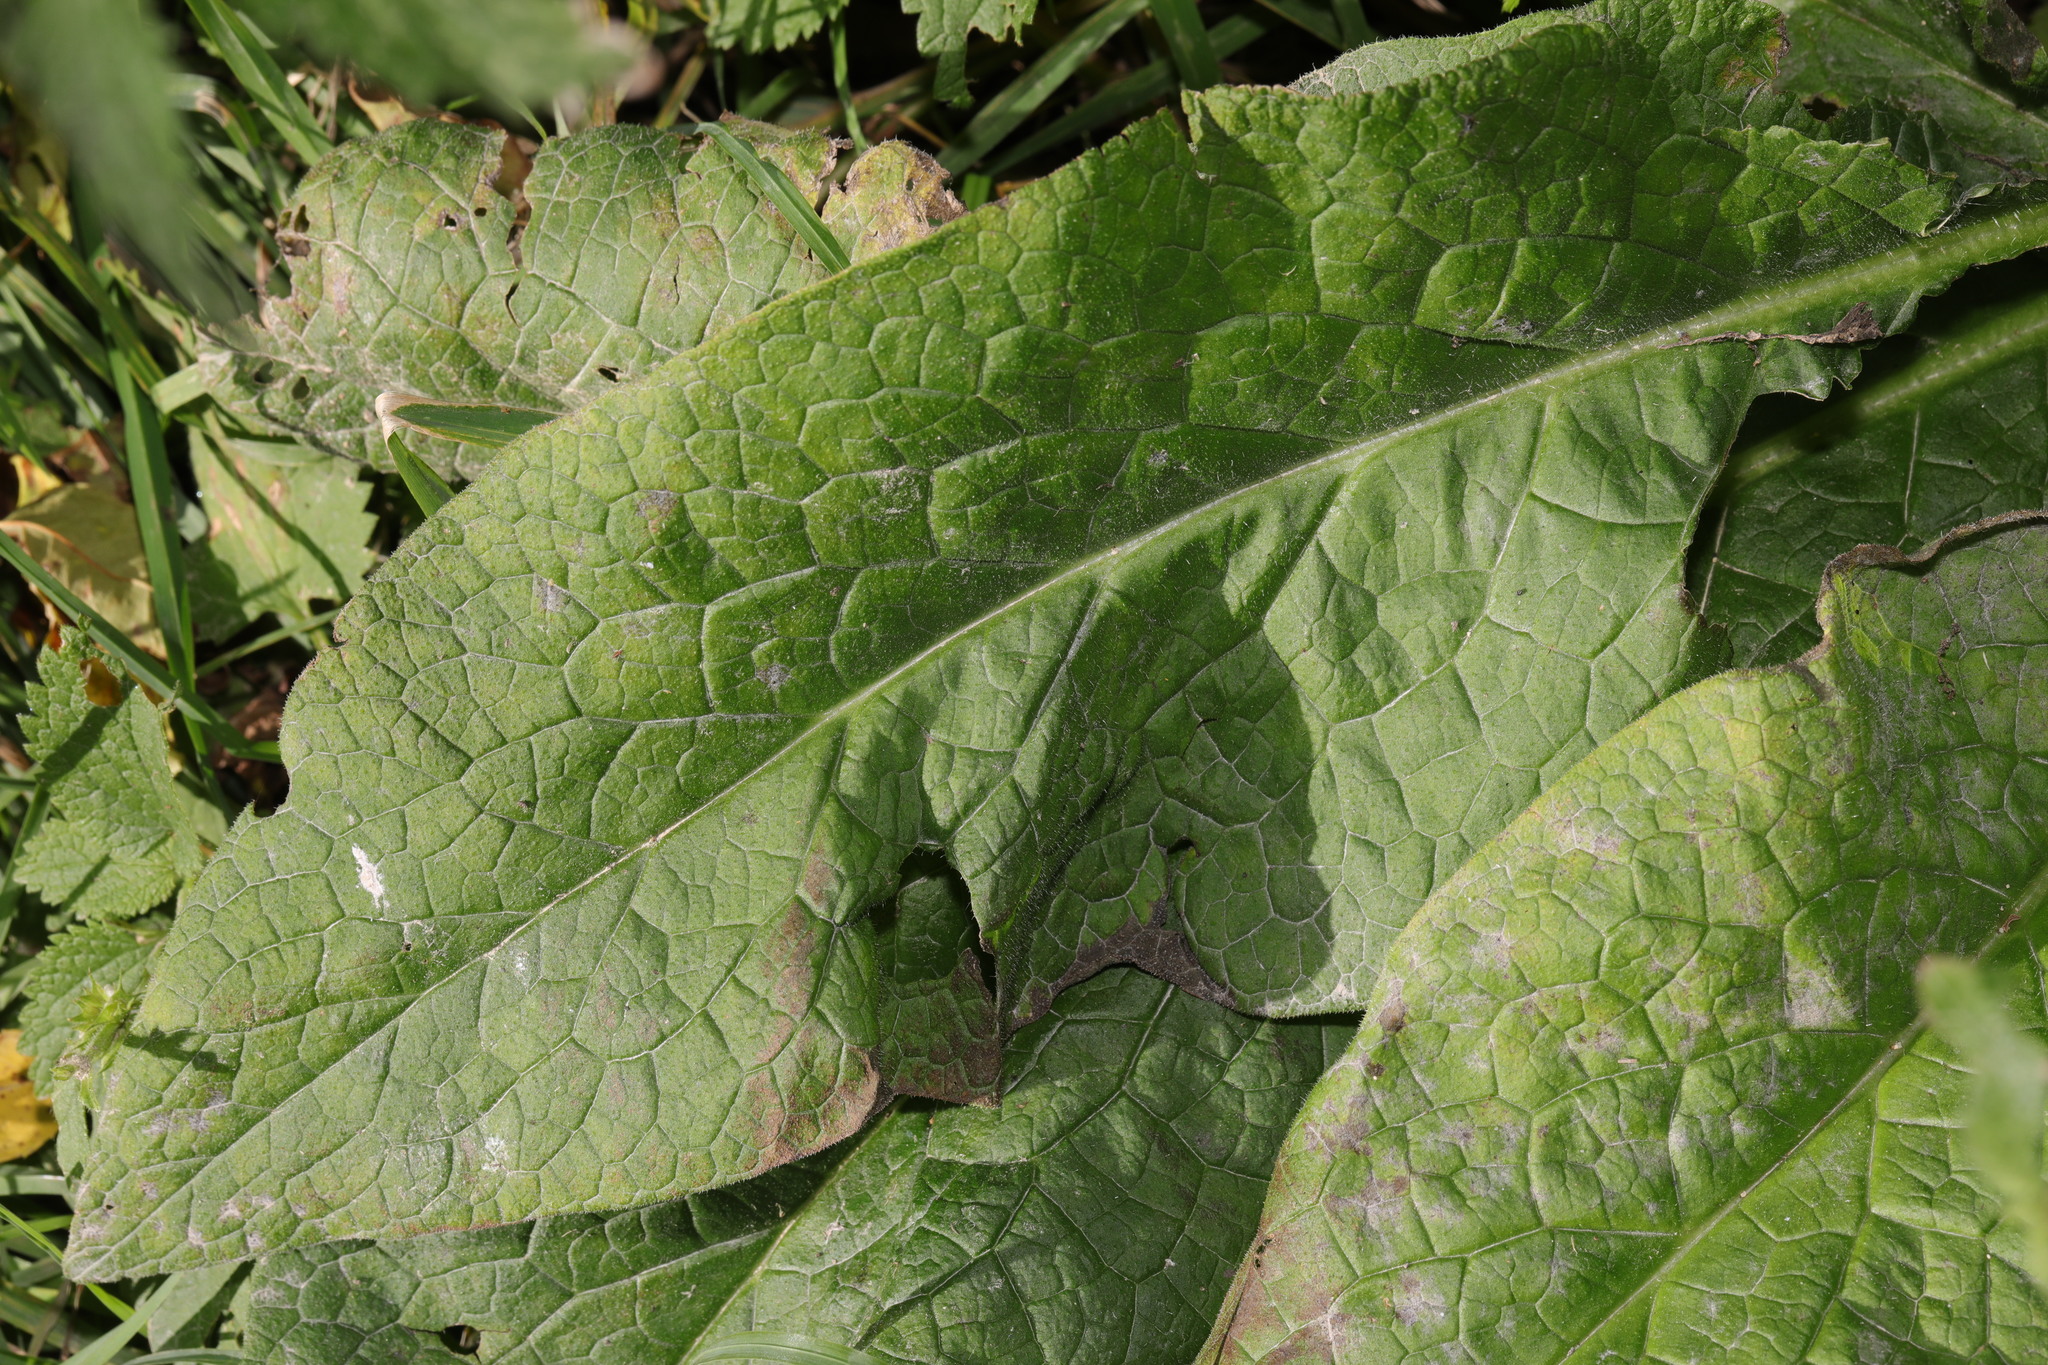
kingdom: Plantae
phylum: Tracheophyta
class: Magnoliopsida
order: Boraginales
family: Boraginaceae
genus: Symphytum
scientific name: Symphytum officinale
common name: Common comfrey
